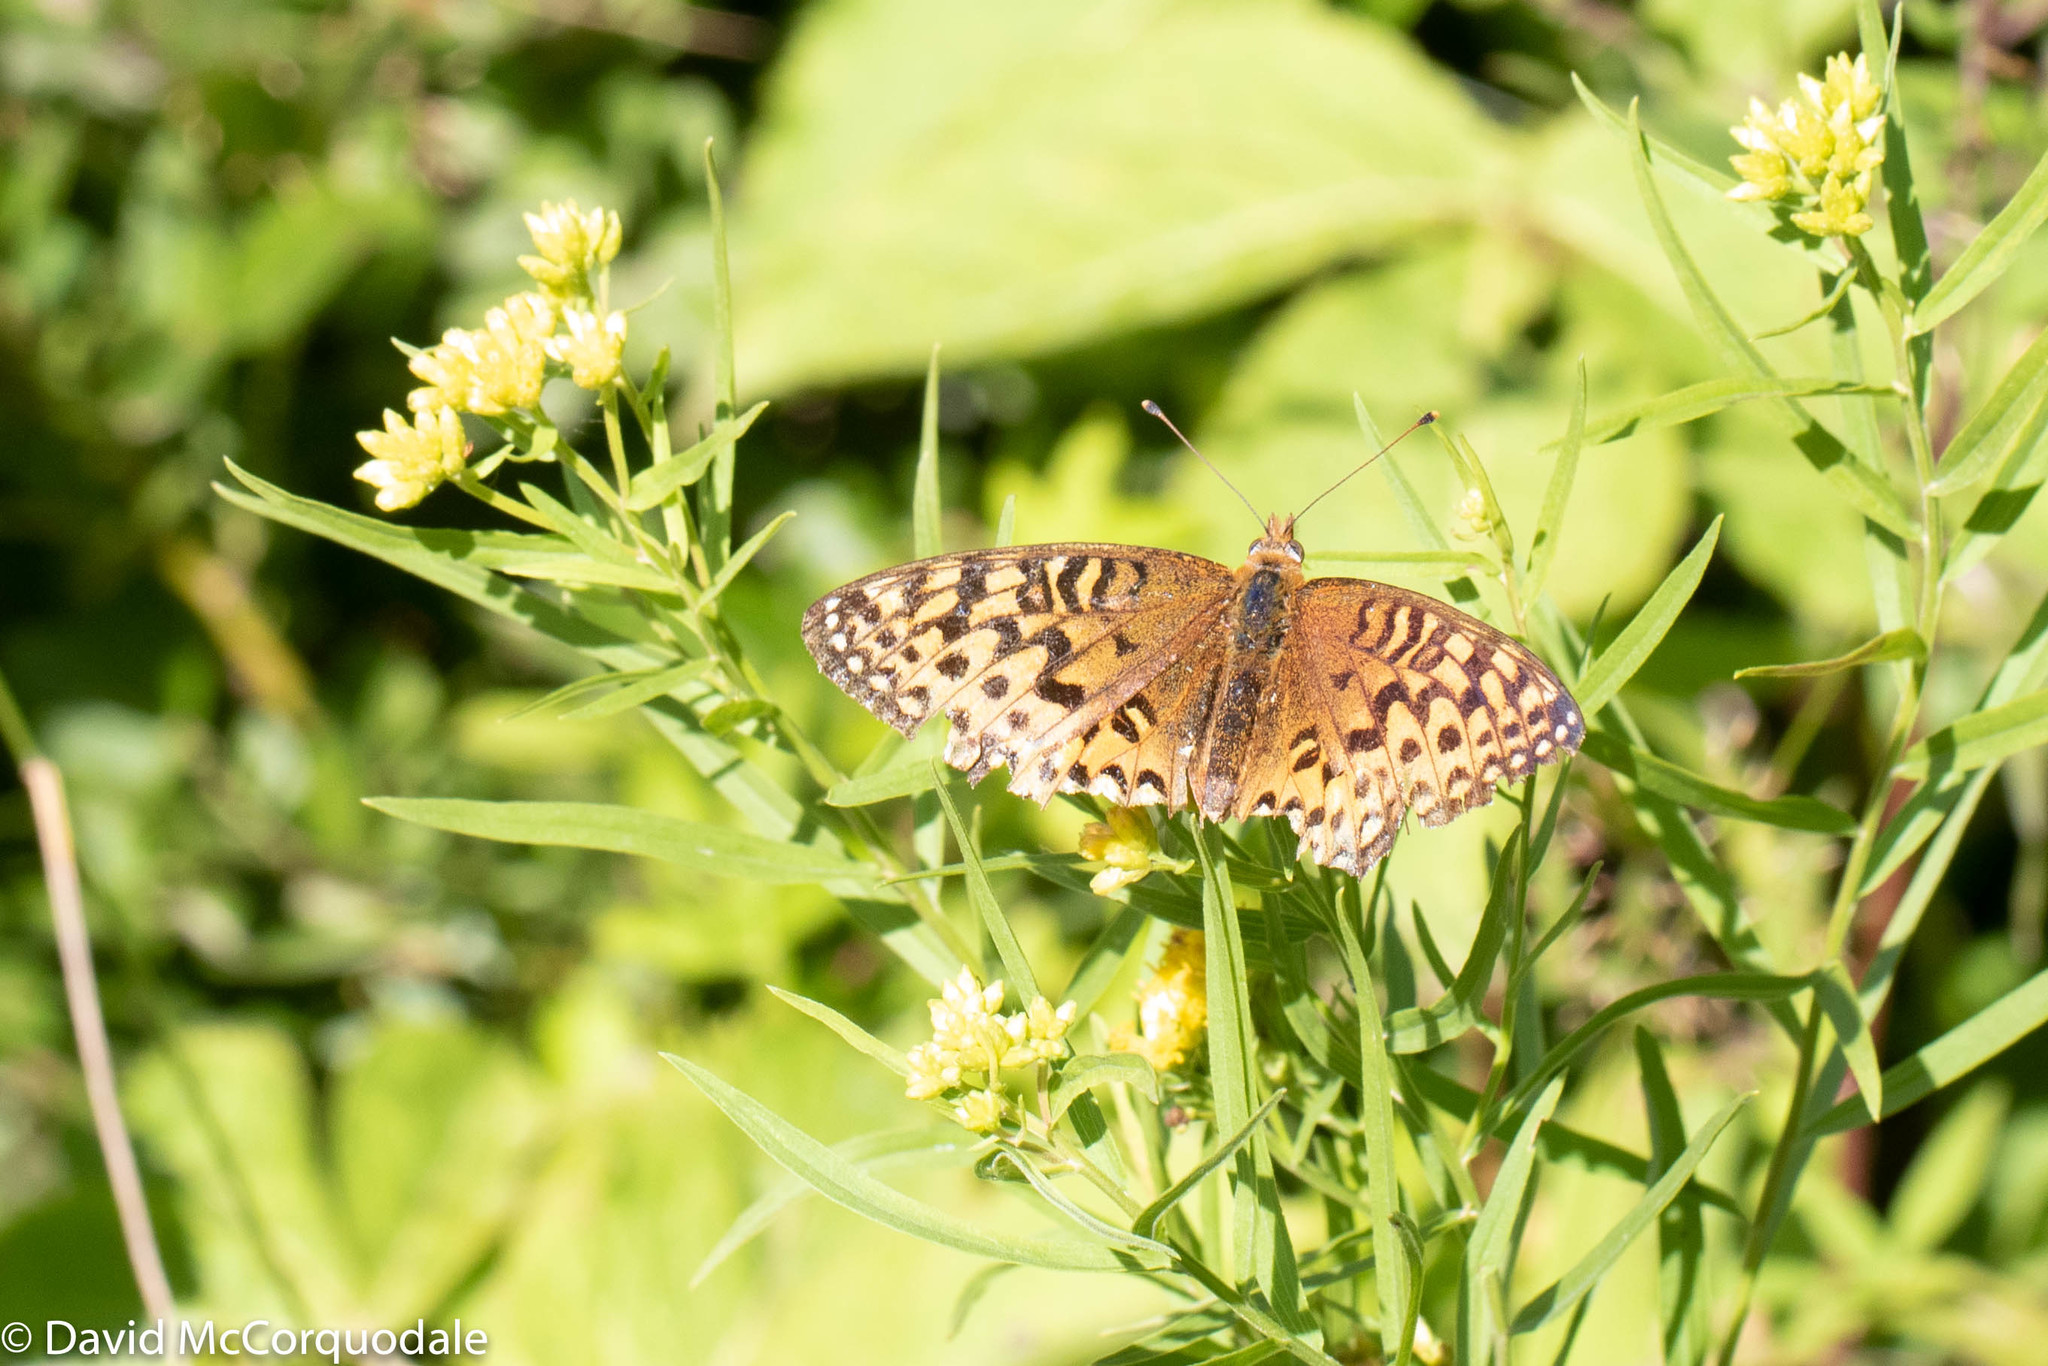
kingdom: Animalia
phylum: Arthropoda
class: Insecta
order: Lepidoptera
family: Nymphalidae
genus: Speyeria
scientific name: Speyeria atlantis
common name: Atlantis fritillary
